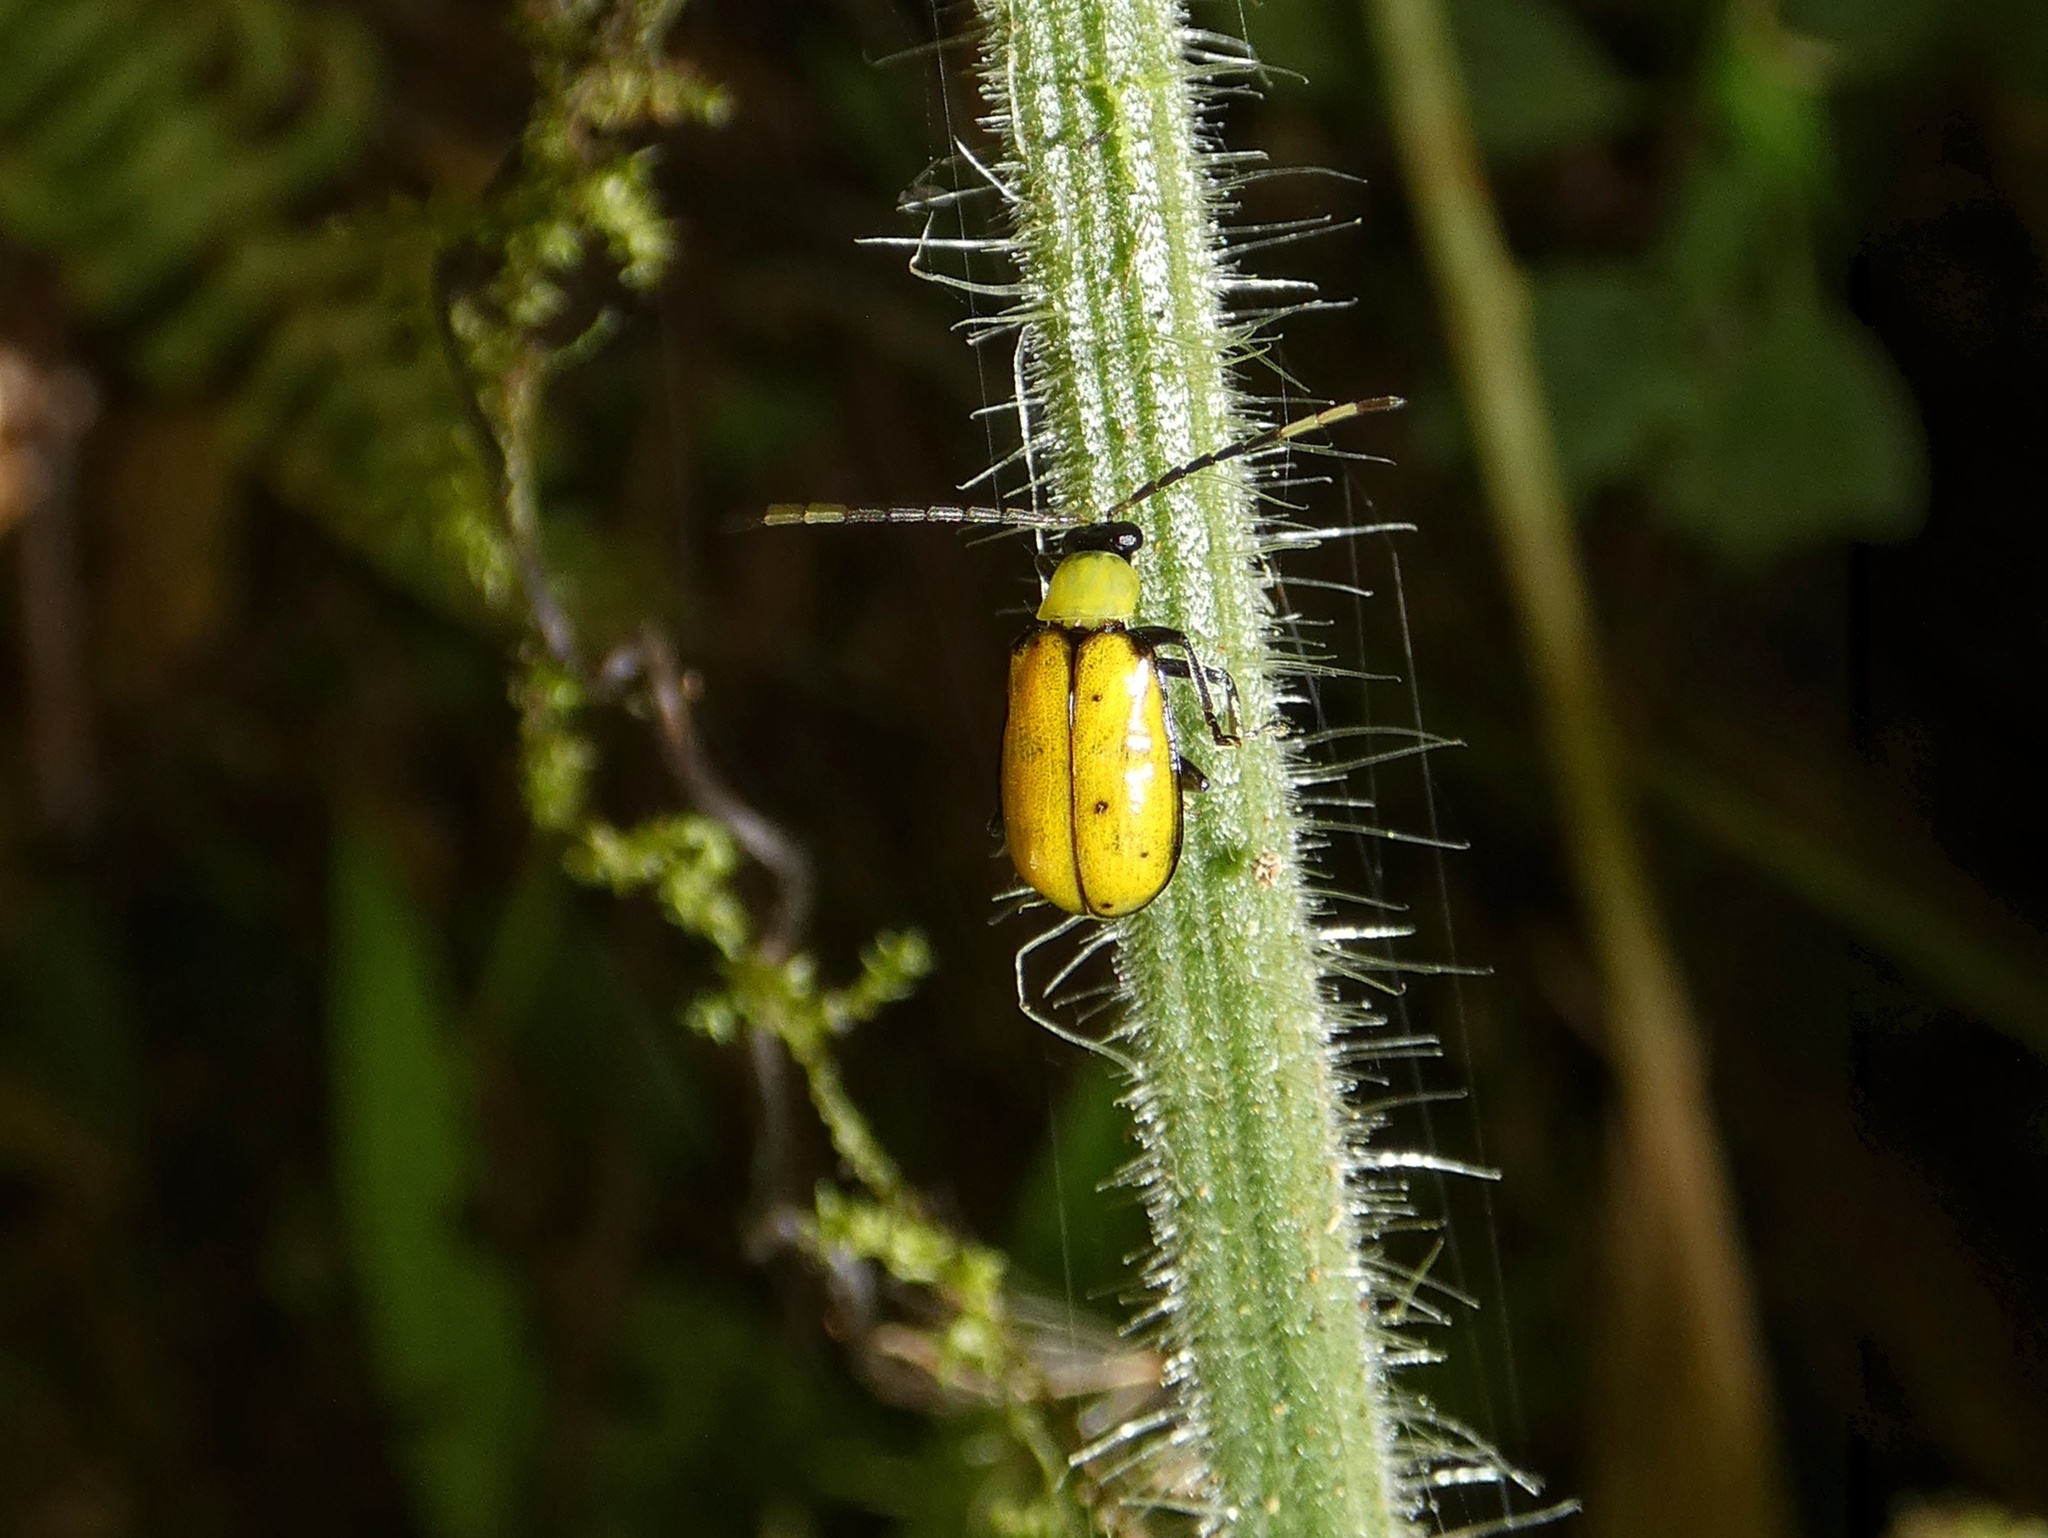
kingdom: Animalia
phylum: Arthropoda
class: Insecta
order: Coleoptera
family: Chrysomelidae
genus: Diabrotica
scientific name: Diabrotica
